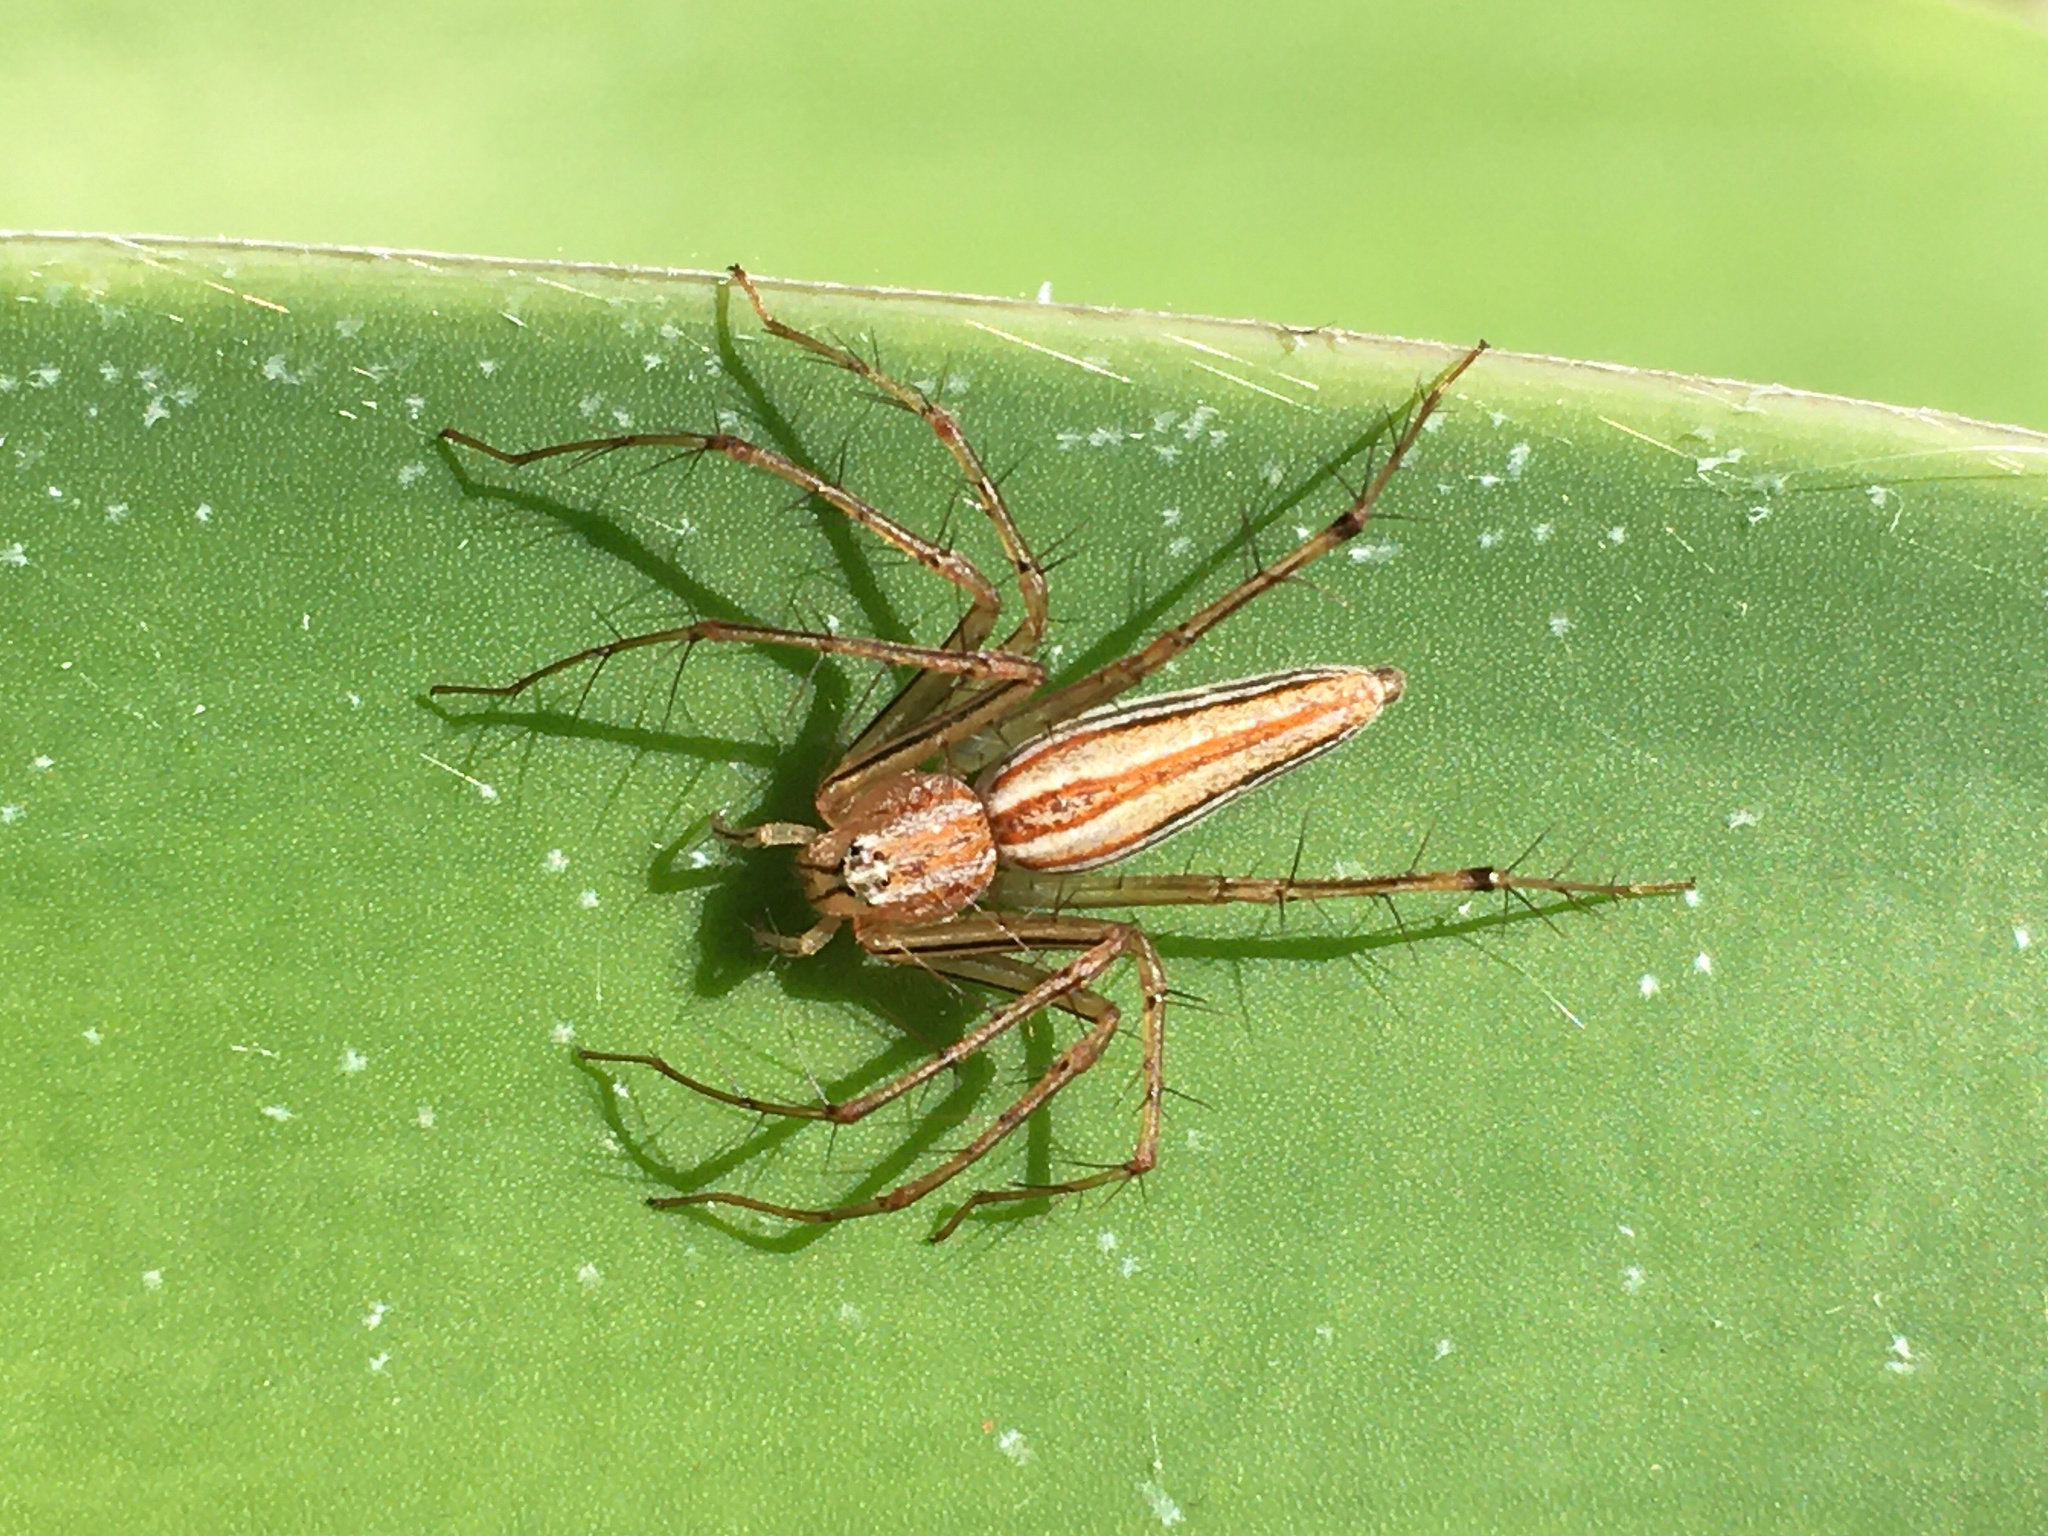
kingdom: Animalia
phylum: Arthropoda
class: Arachnida
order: Araneae
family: Oxyopidae
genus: Oxyopes
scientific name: Oxyopes macilentus
